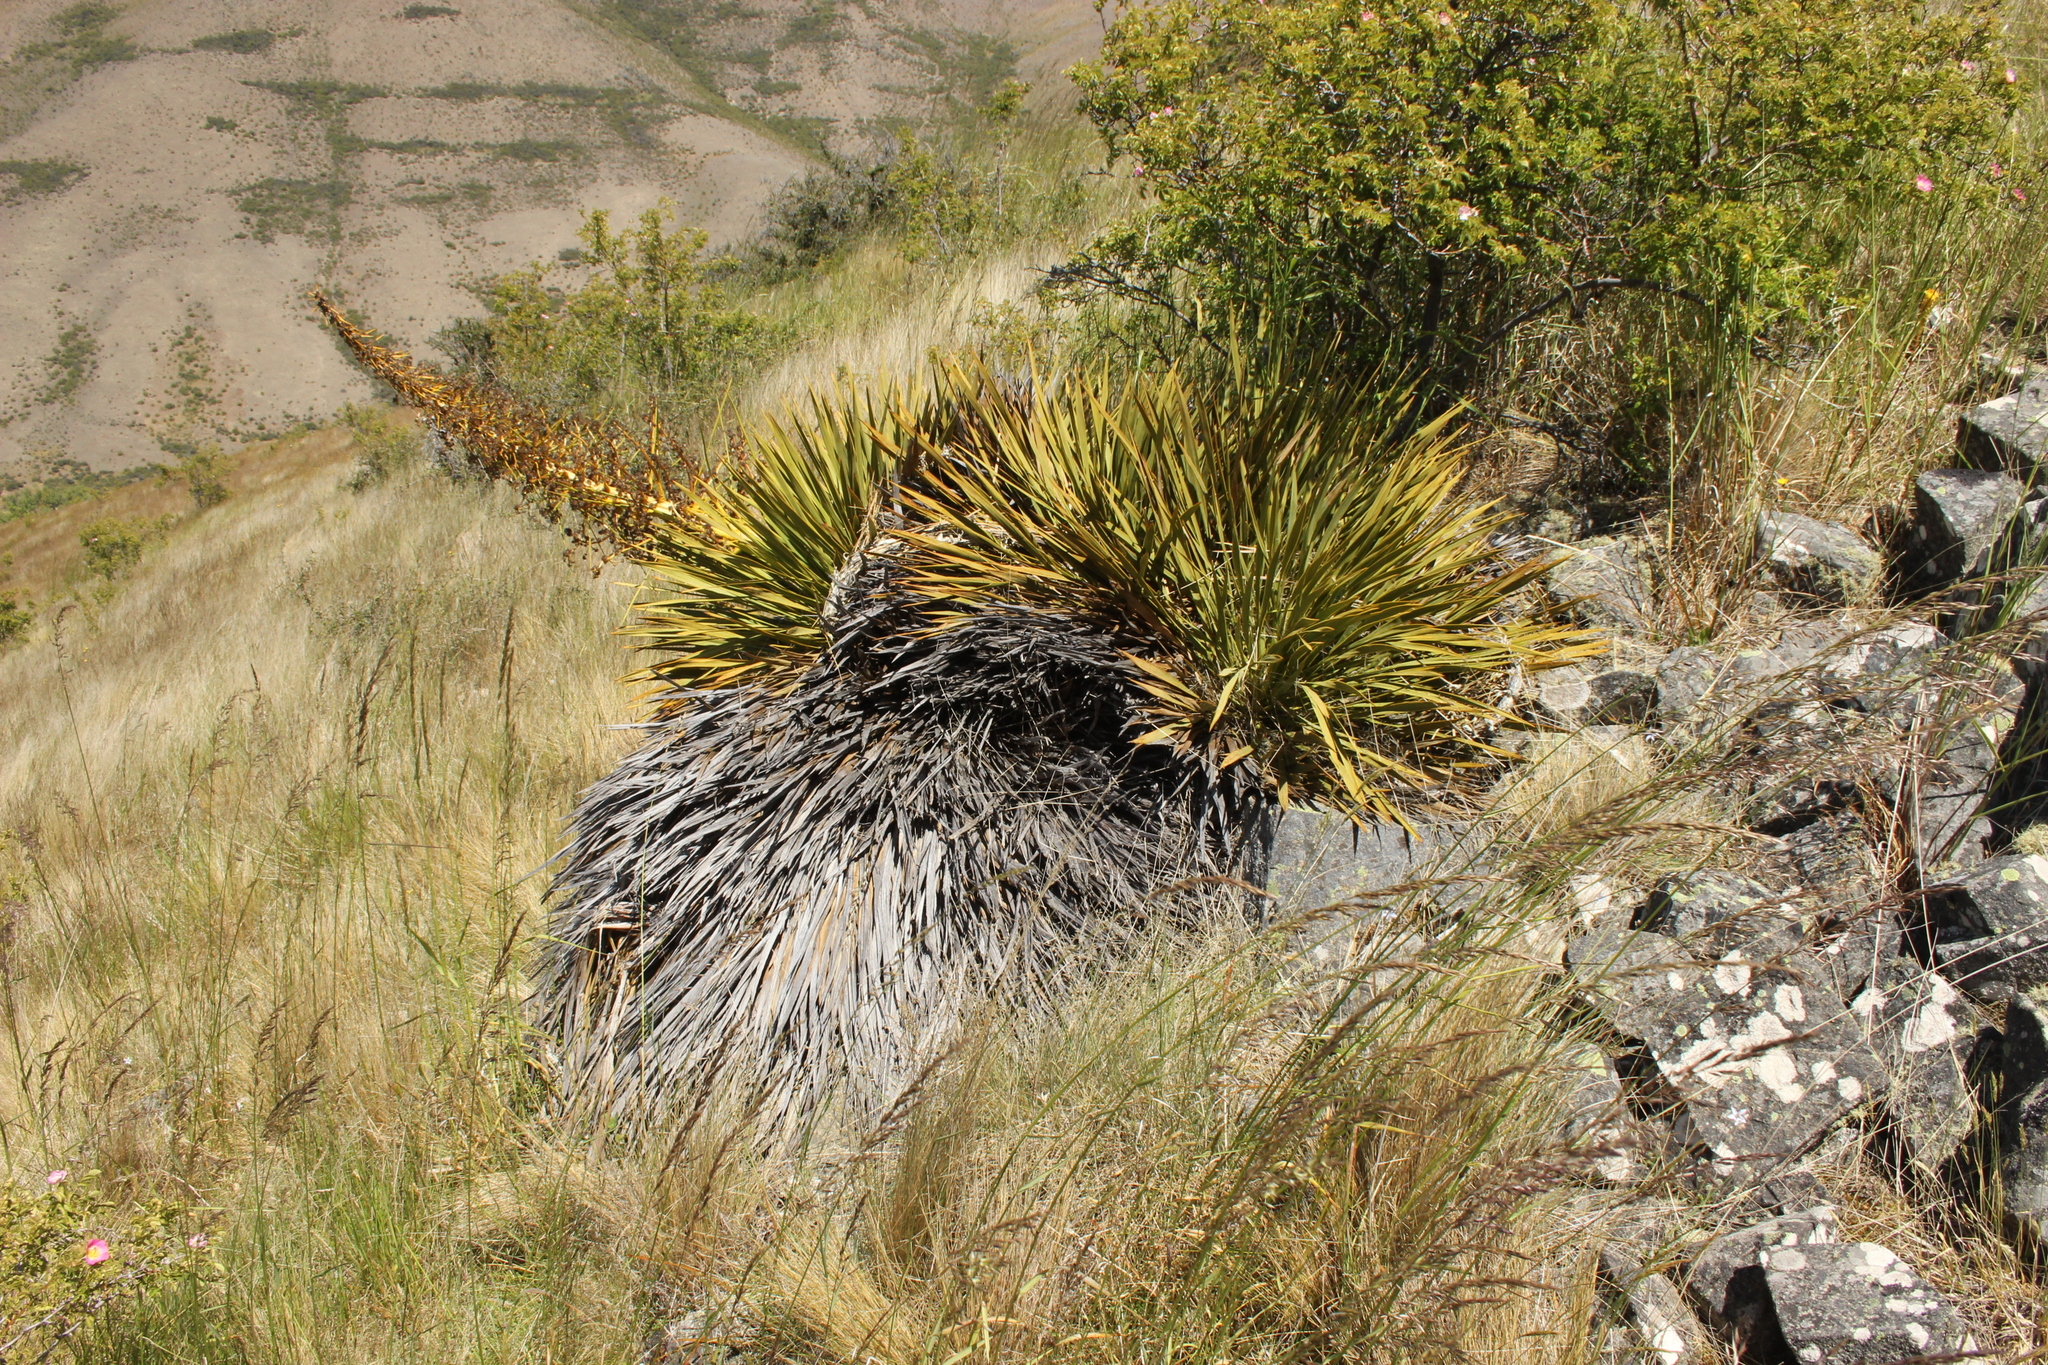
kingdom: Plantae
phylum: Tracheophyta
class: Magnoliopsida
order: Apiales
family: Apiaceae
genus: Aciphylla
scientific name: Aciphylla aurea
